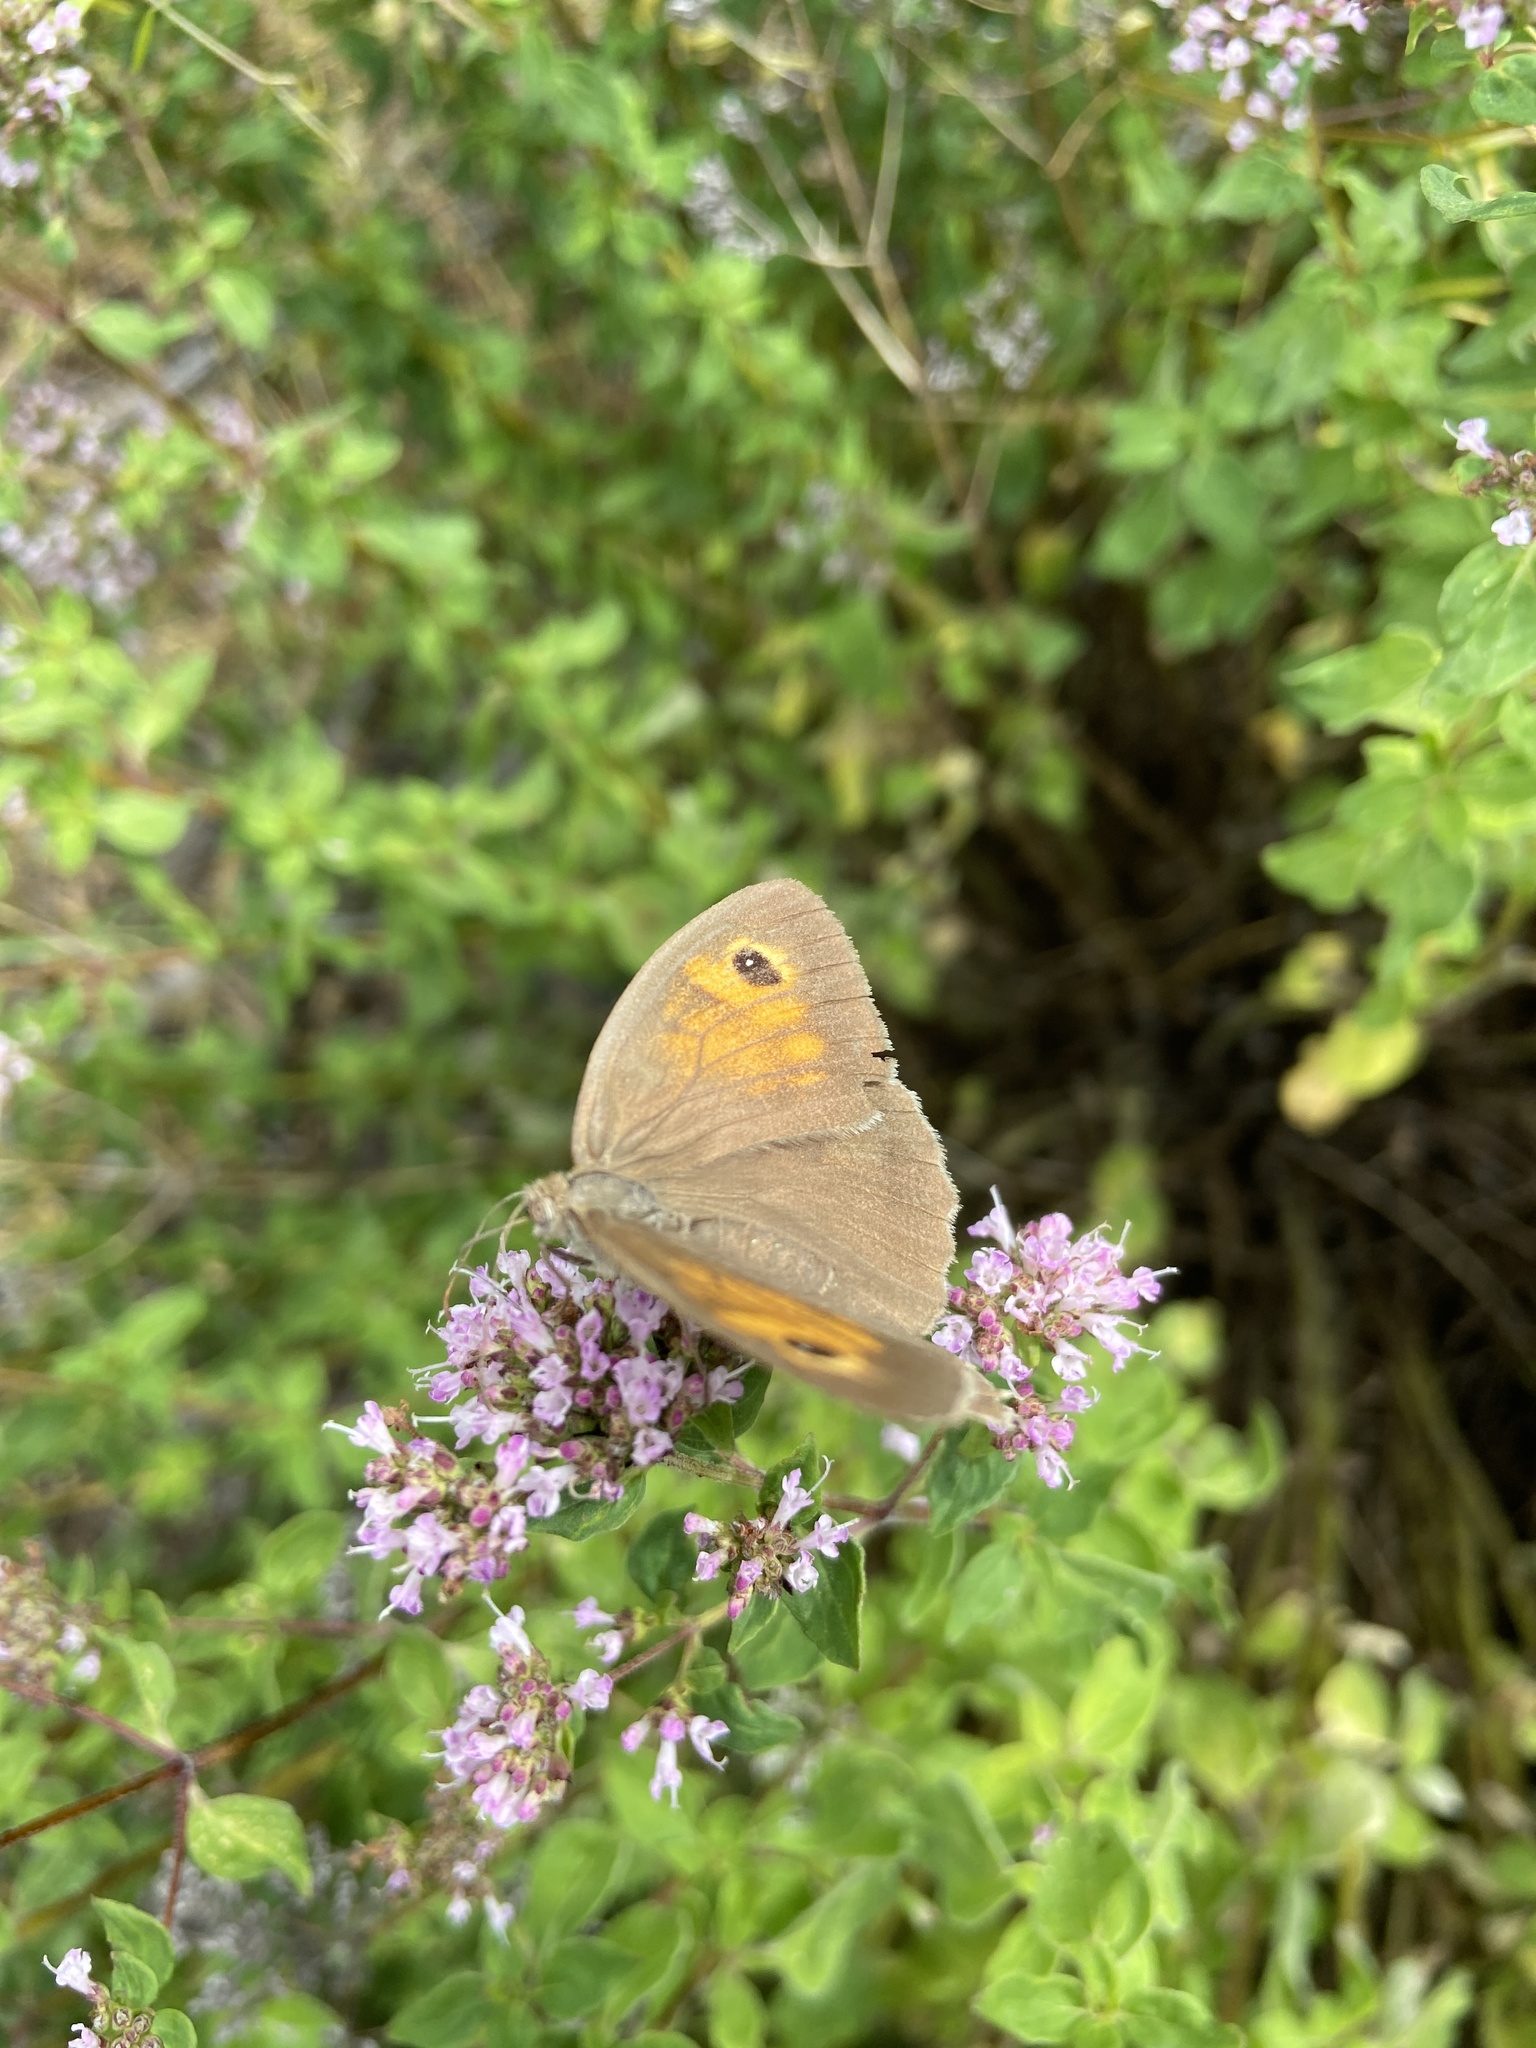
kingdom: Animalia
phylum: Arthropoda
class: Insecta
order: Lepidoptera
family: Nymphalidae
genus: Maniola
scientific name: Maniola jurtina
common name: Meadow brown
